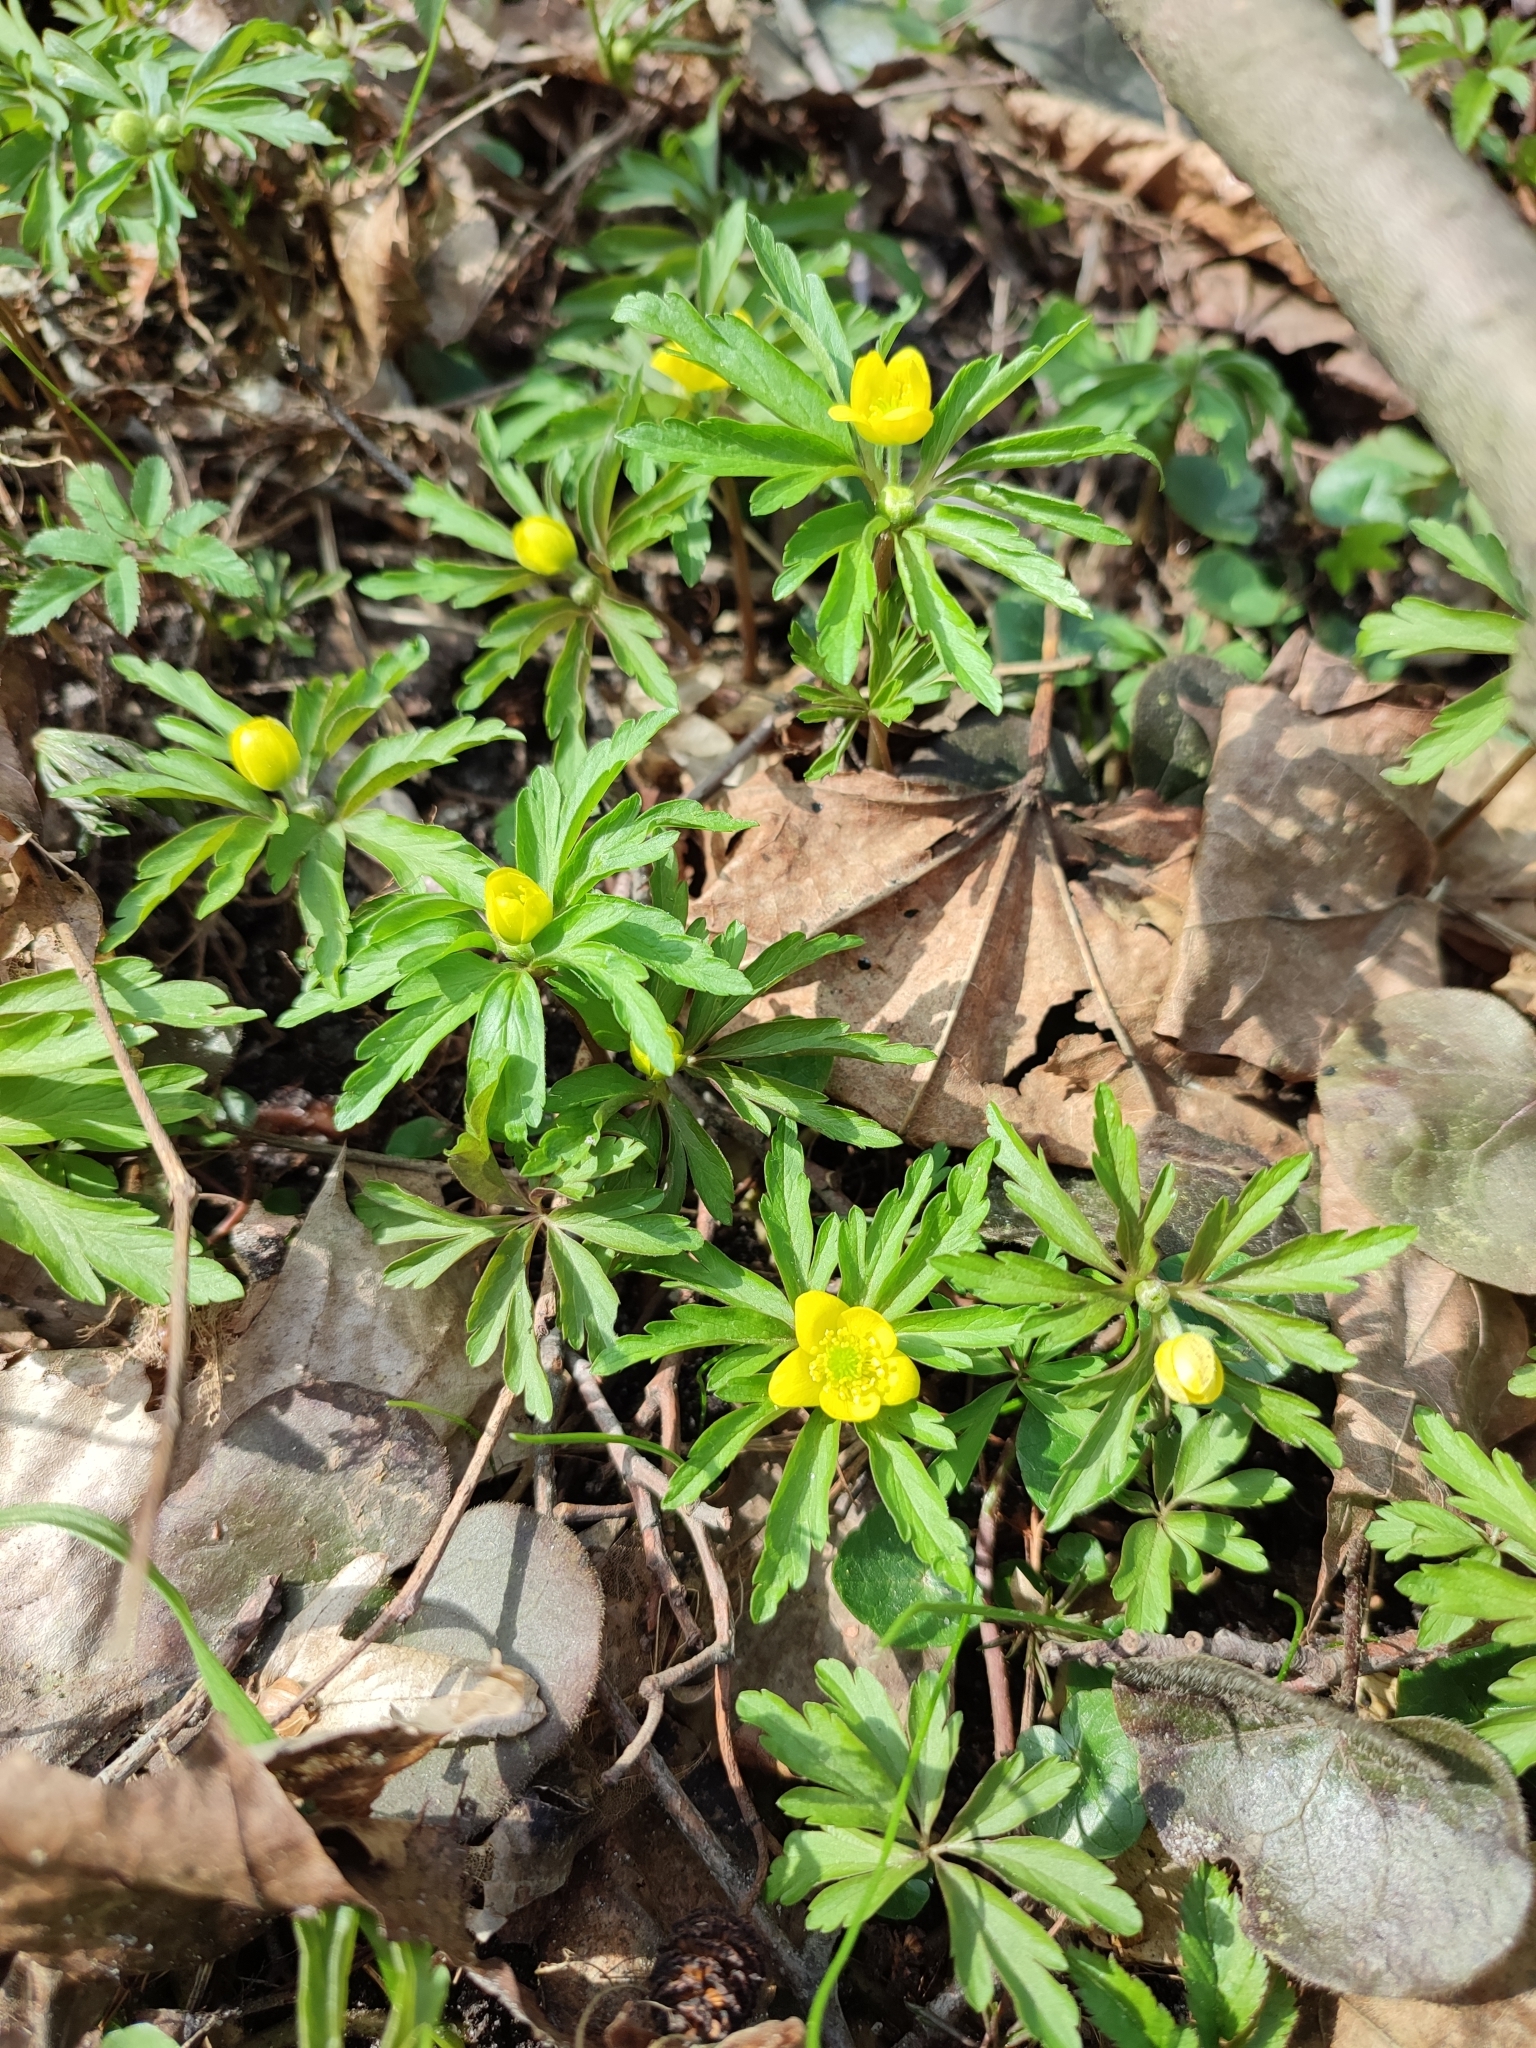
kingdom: Plantae
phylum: Tracheophyta
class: Magnoliopsida
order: Ranunculales
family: Ranunculaceae
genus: Anemone
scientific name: Anemone ranunculoides
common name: Yellow anemone
